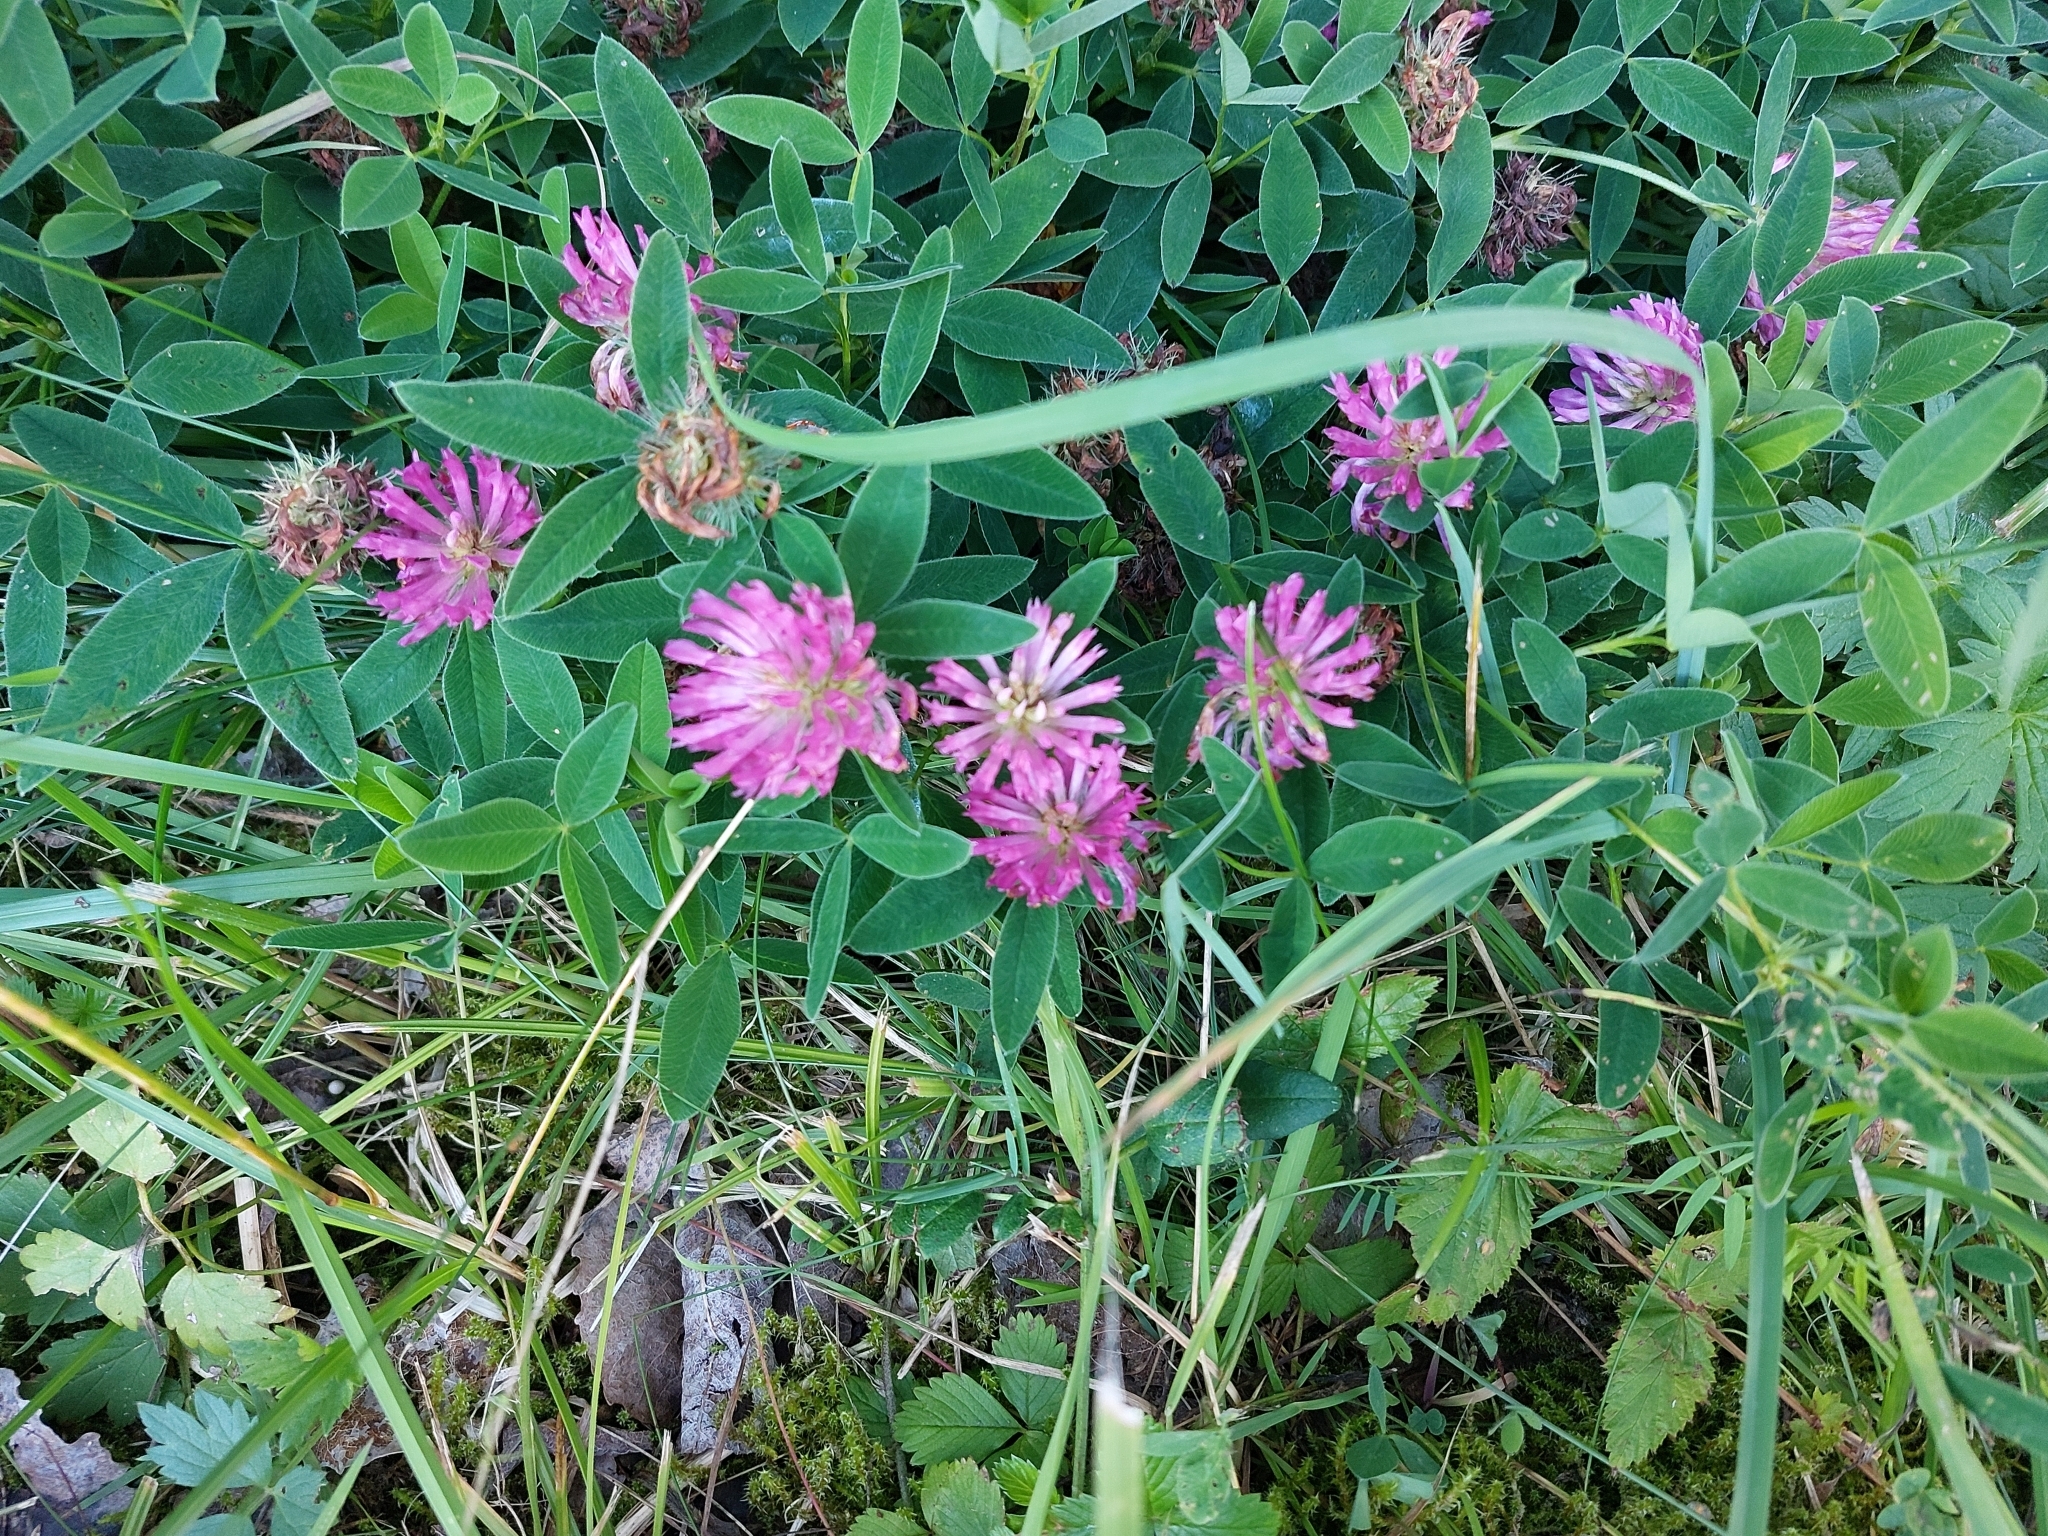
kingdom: Plantae
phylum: Tracheophyta
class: Magnoliopsida
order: Fabales
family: Fabaceae
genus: Trifolium
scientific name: Trifolium medium
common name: Zigzag clover
